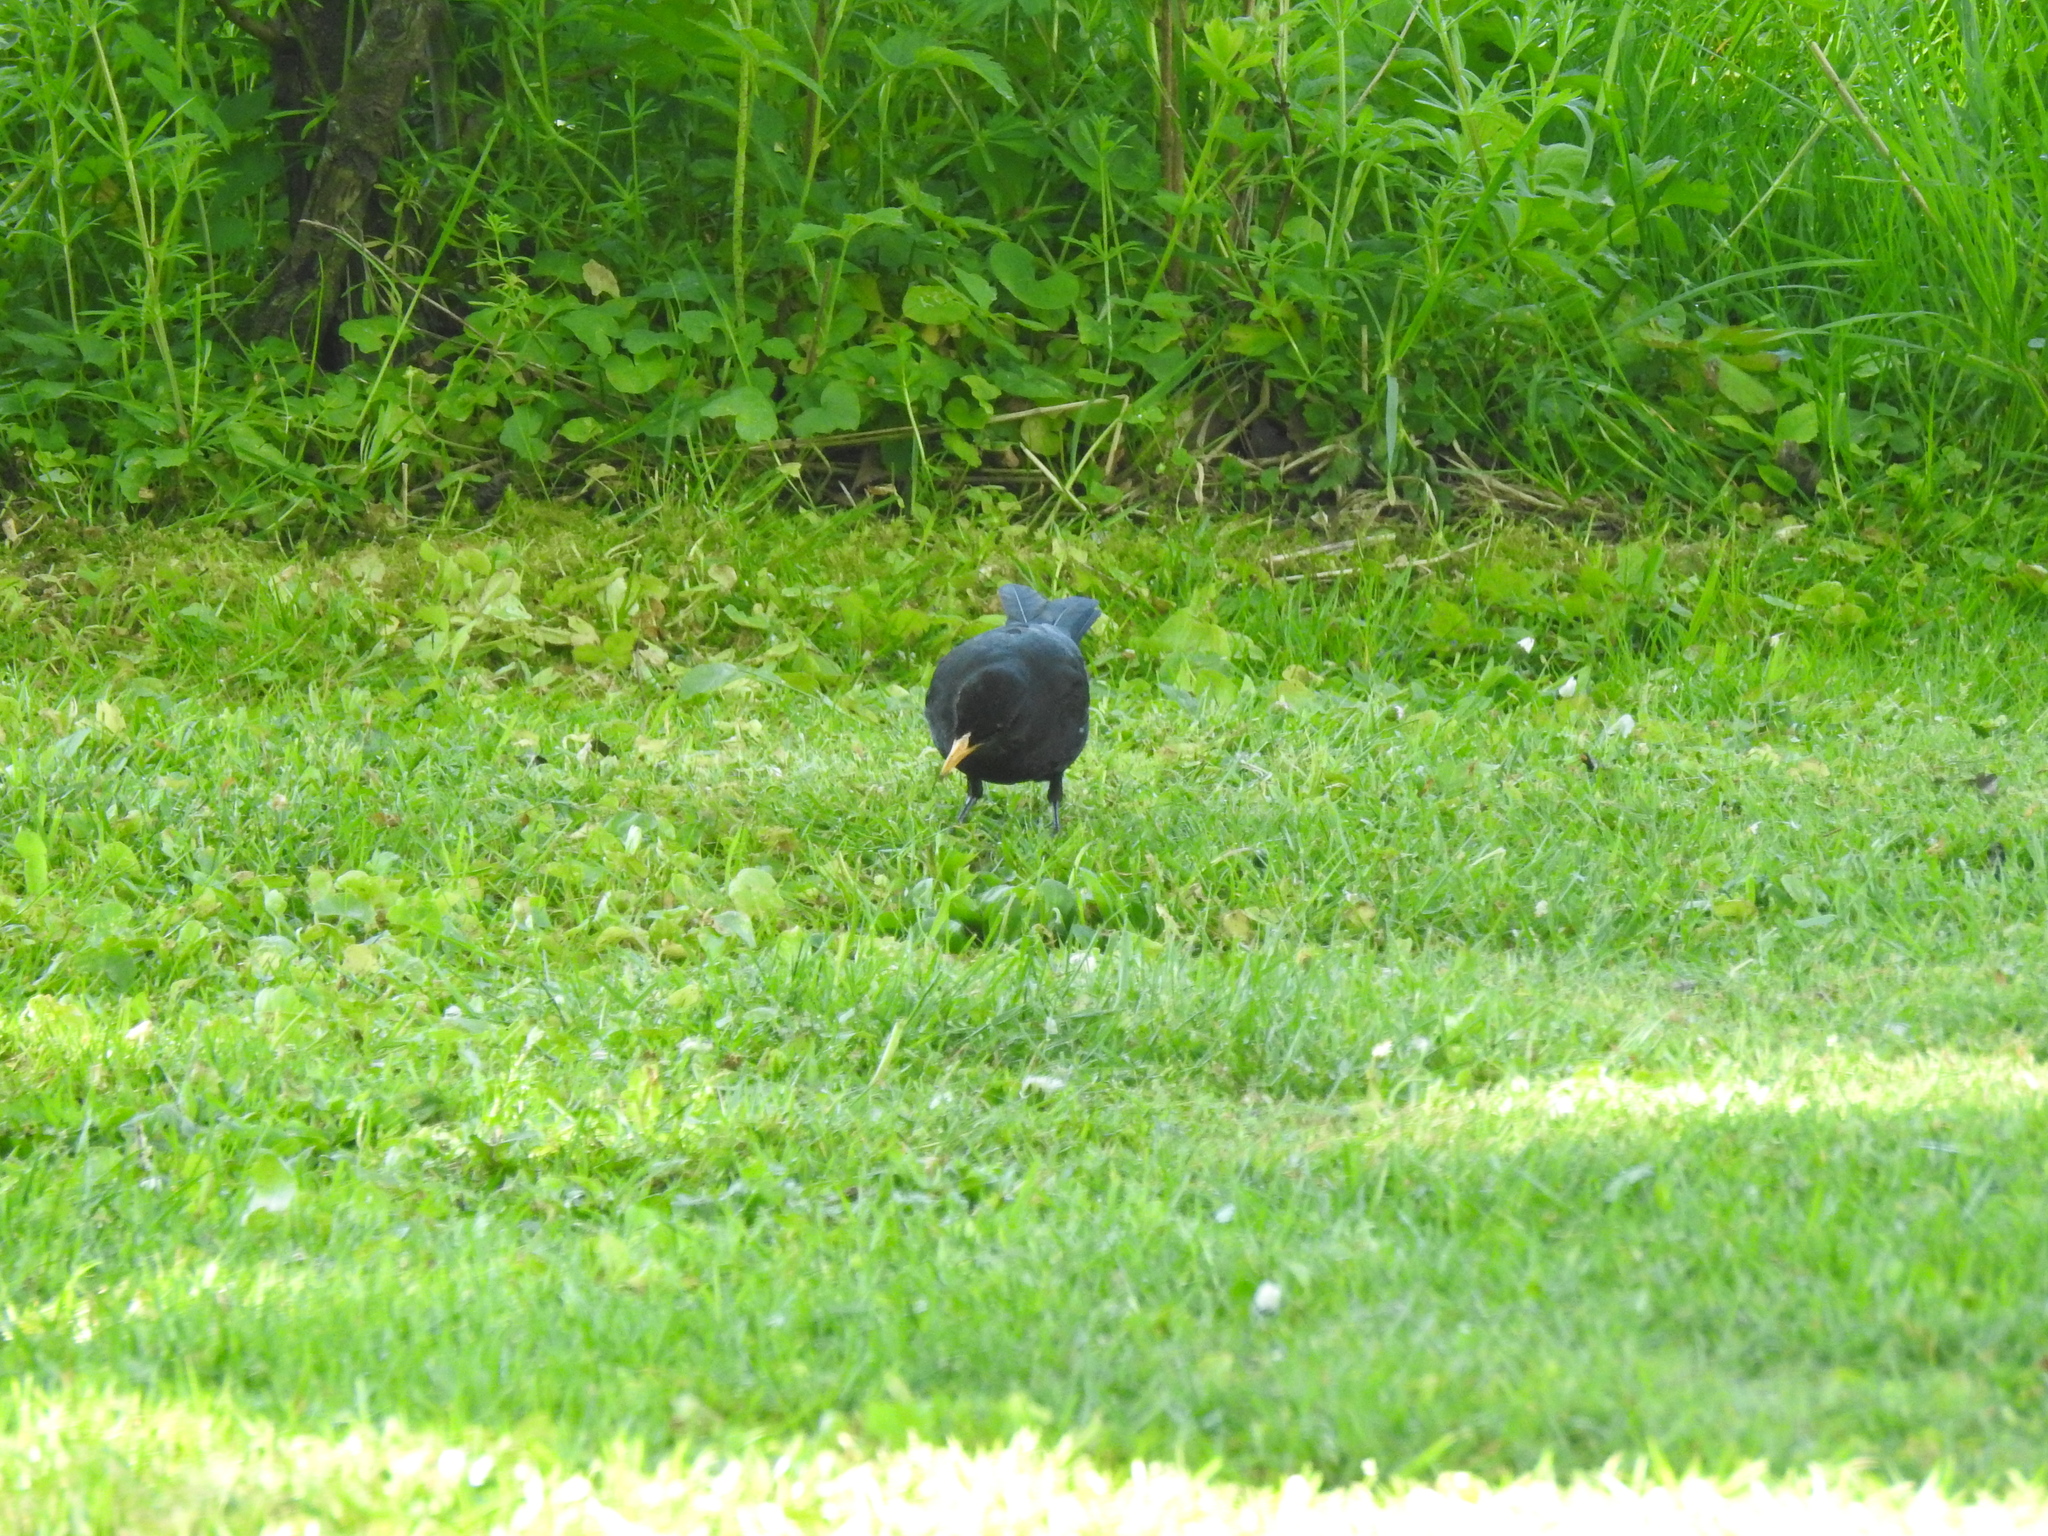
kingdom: Animalia
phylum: Chordata
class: Aves
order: Passeriformes
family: Turdidae
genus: Turdus
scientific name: Turdus merula
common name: Common blackbird
